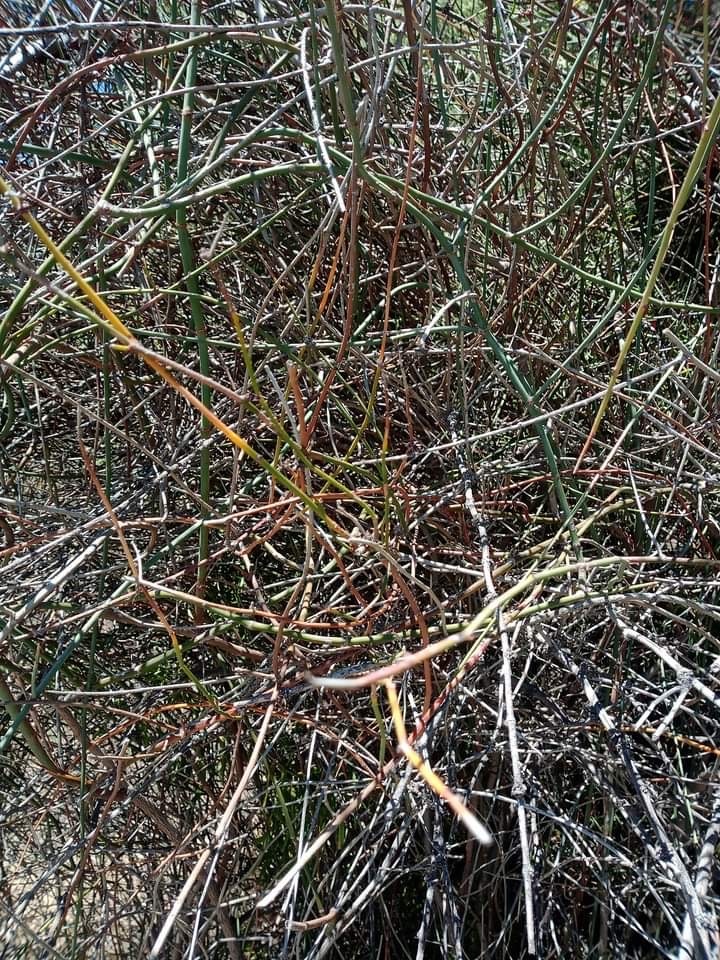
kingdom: Plantae
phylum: Tracheophyta
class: Magnoliopsida
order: Caryophyllales
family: Polygonaceae
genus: Duma
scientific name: Duma florulenta
